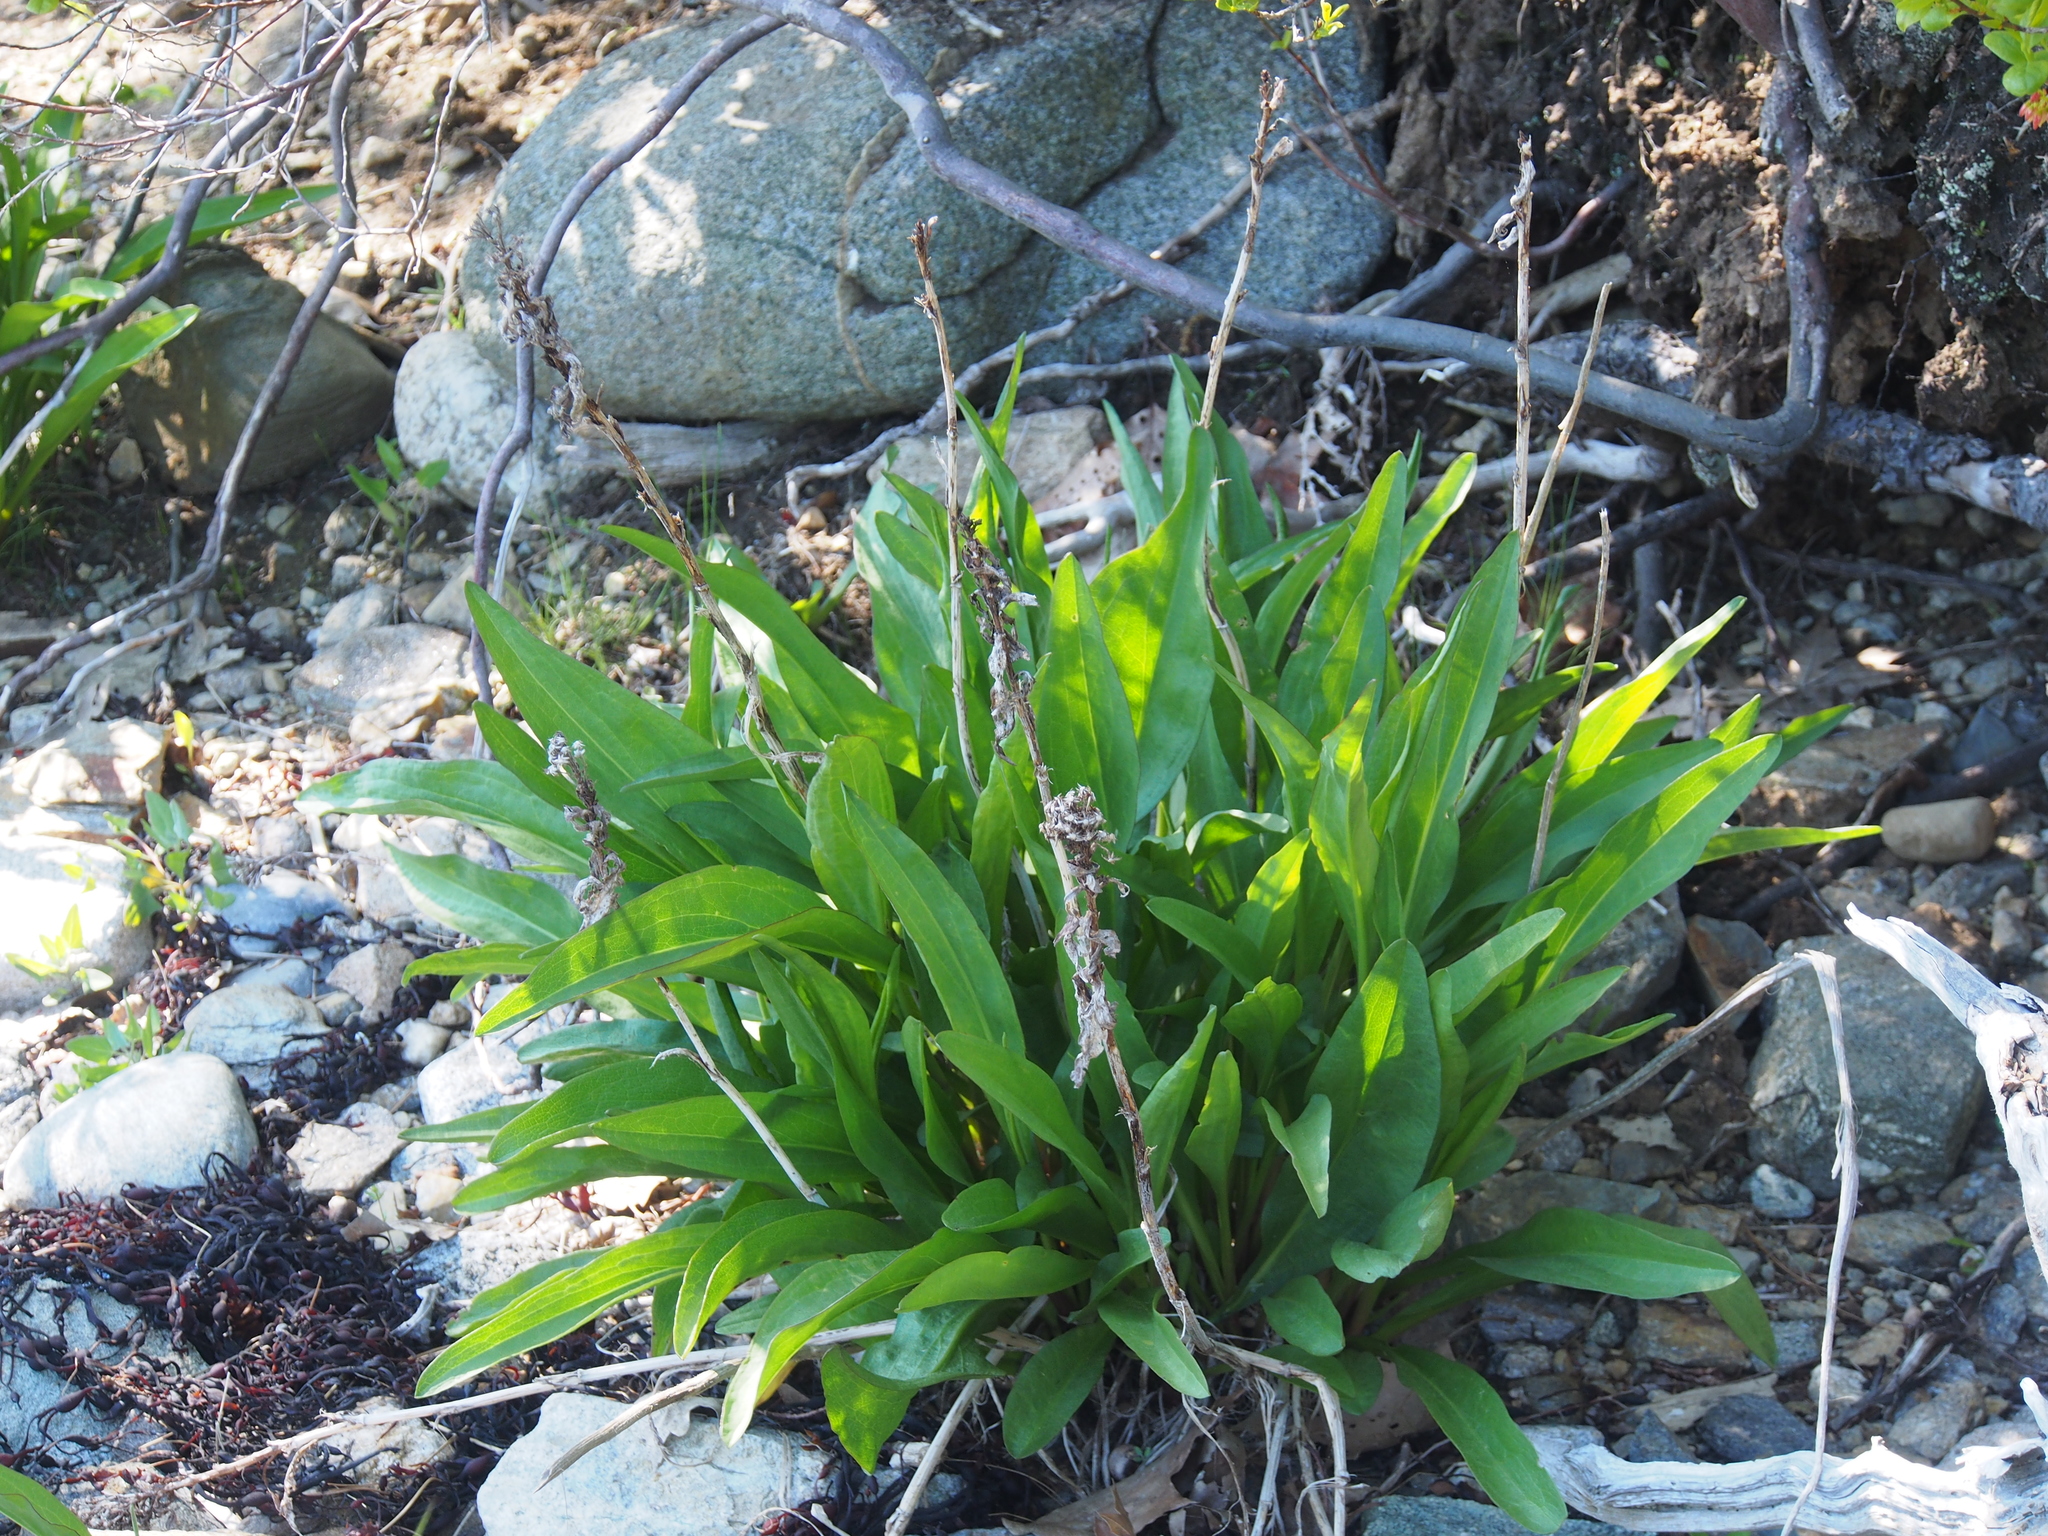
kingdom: Plantae
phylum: Tracheophyta
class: Magnoliopsida
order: Asterales
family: Asteraceae
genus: Solidago
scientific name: Solidago sempervirens
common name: Salt-marsh goldenrod
